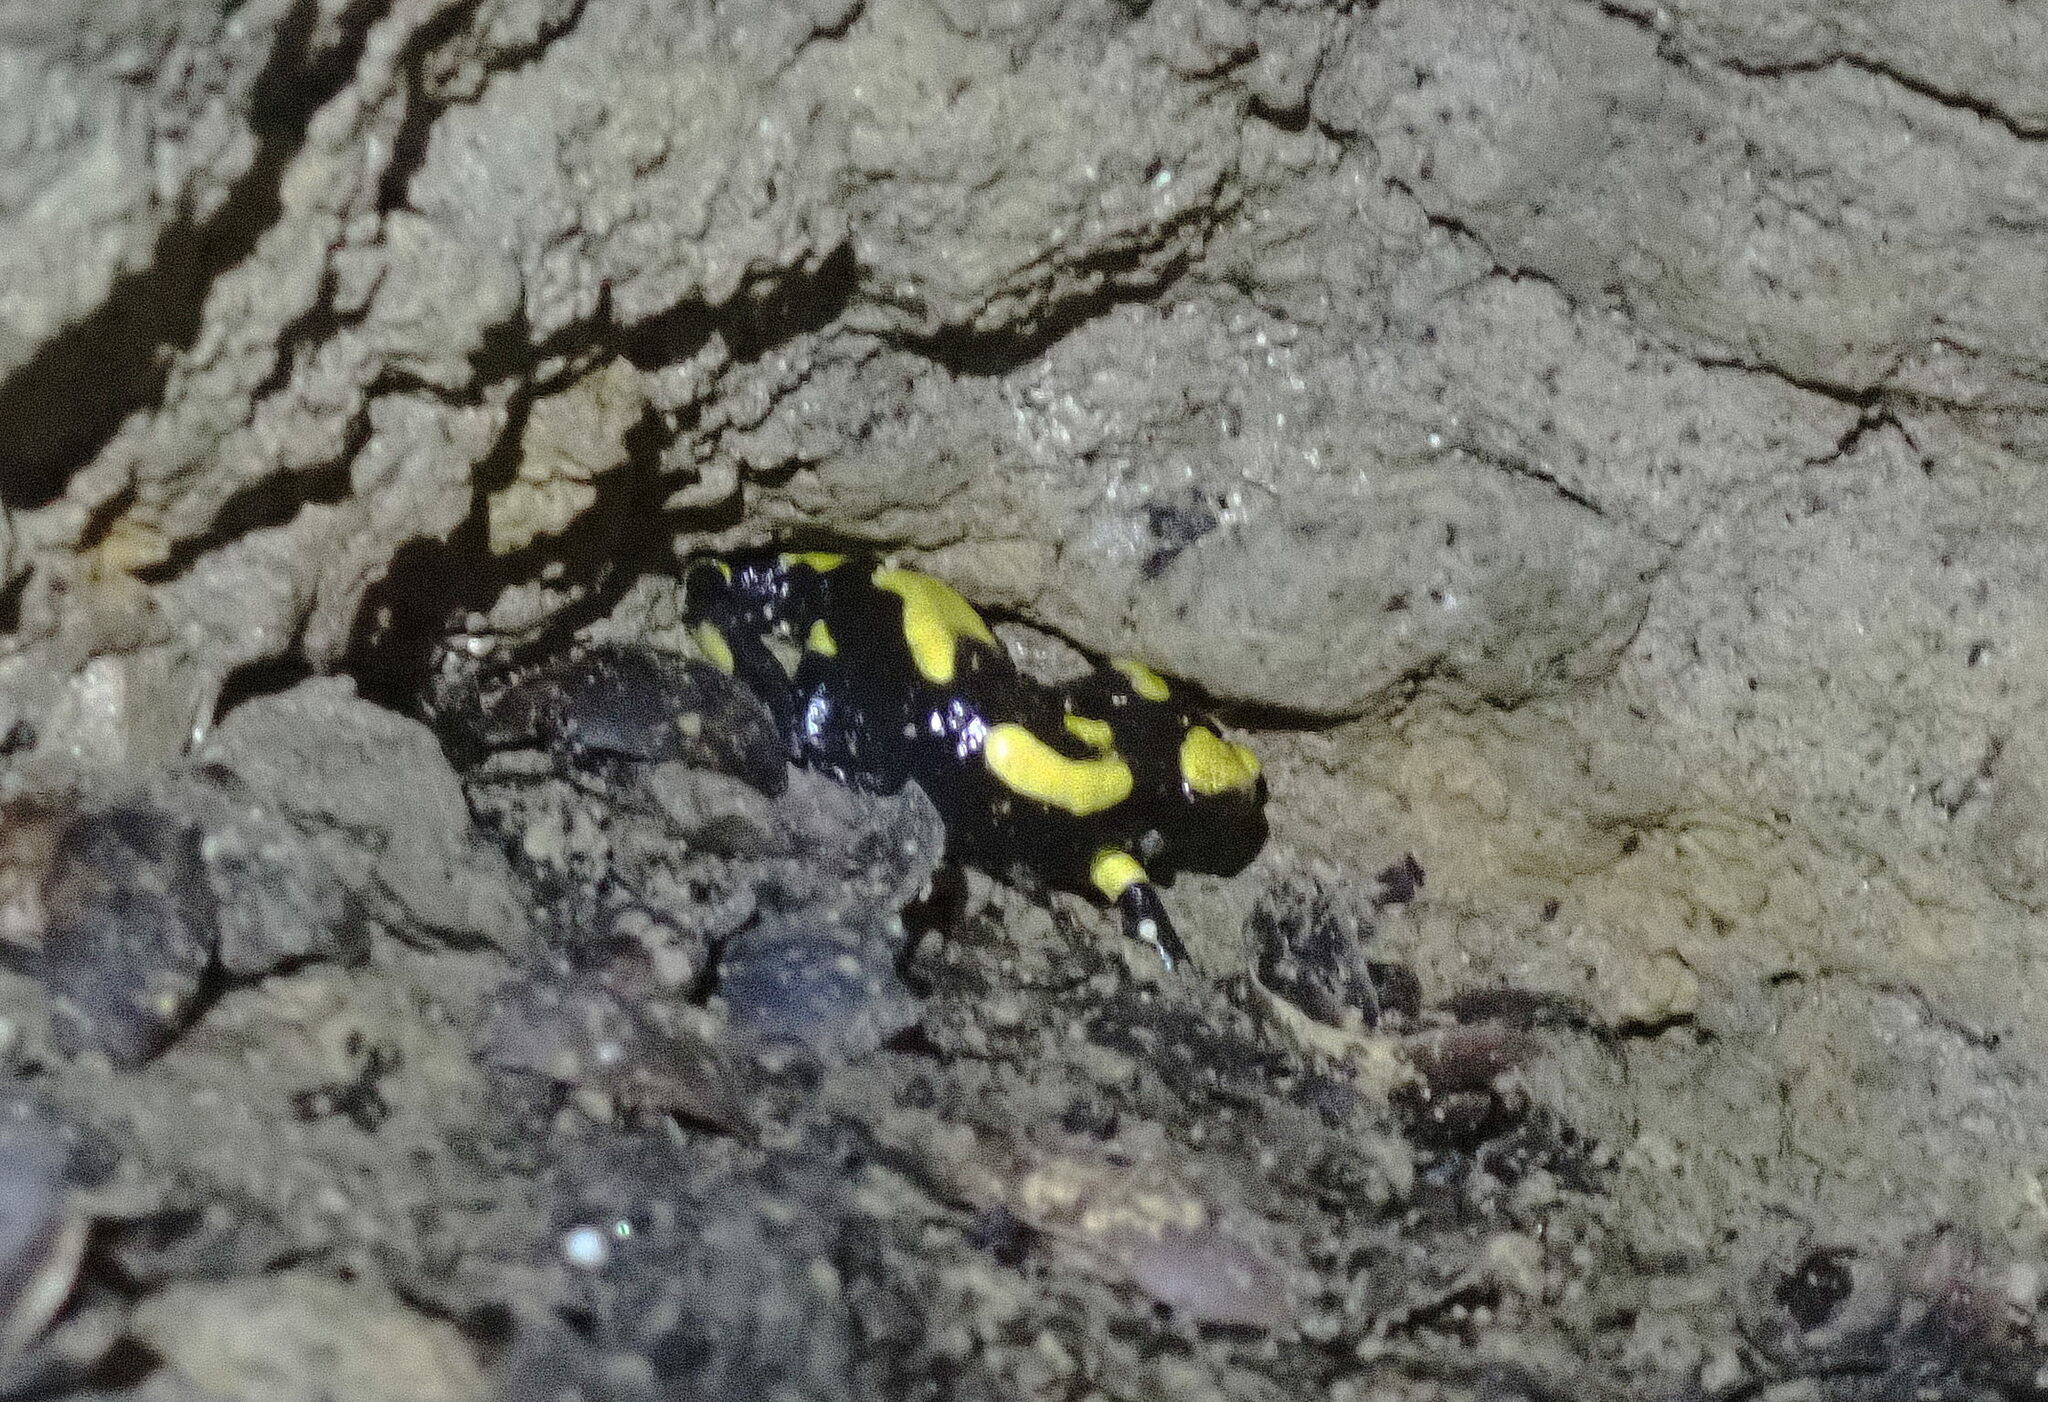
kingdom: Animalia
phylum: Chordata
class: Amphibia
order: Caudata
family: Salamandridae
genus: Salamandra
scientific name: Salamandra salamandra
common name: Fire salamander
